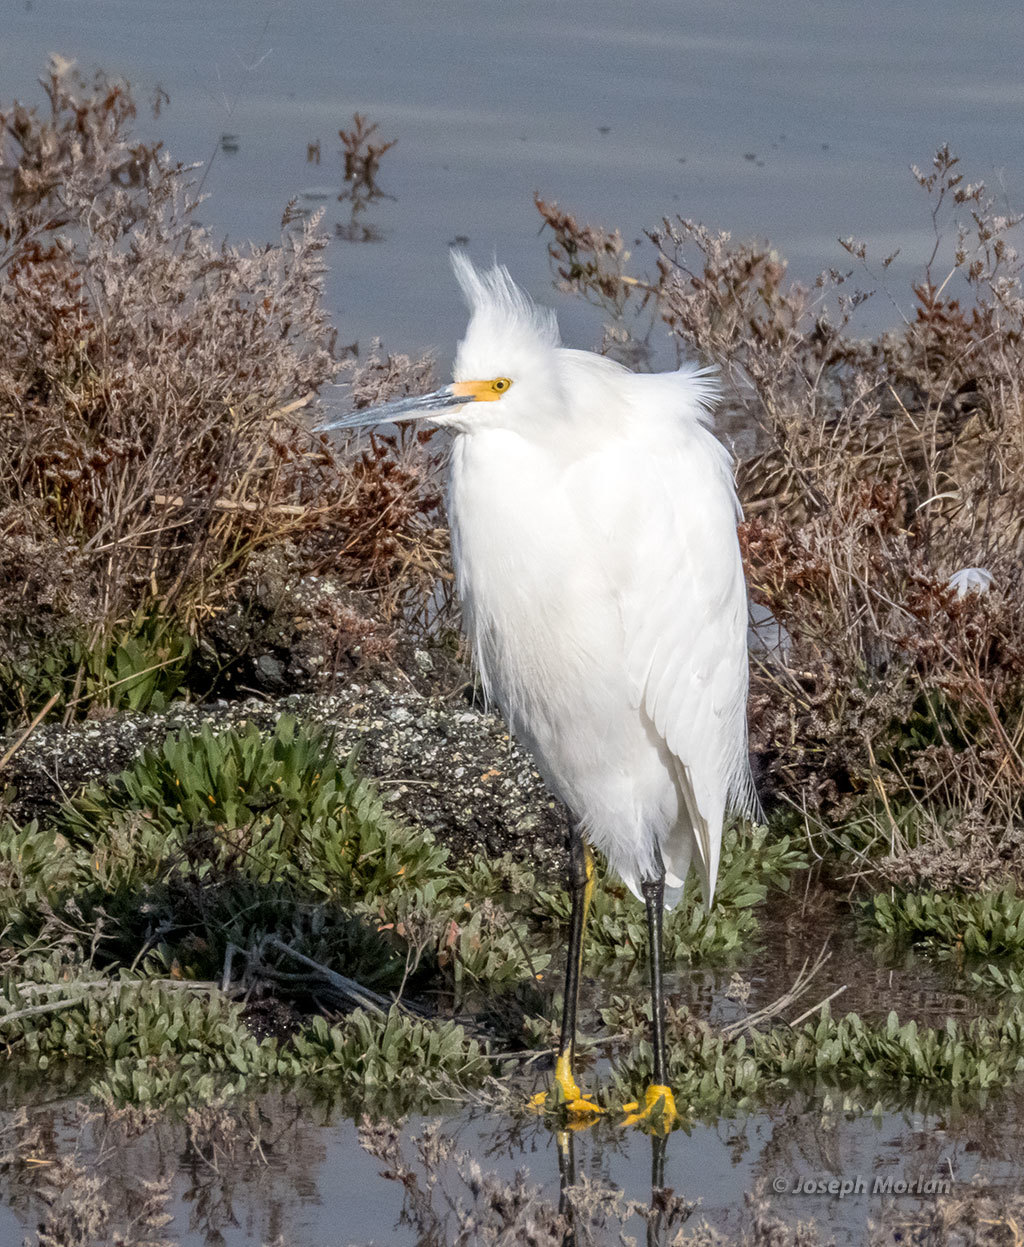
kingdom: Animalia
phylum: Chordata
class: Aves
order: Pelecaniformes
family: Ardeidae
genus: Egretta
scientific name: Egretta thula
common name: Snowy egret
